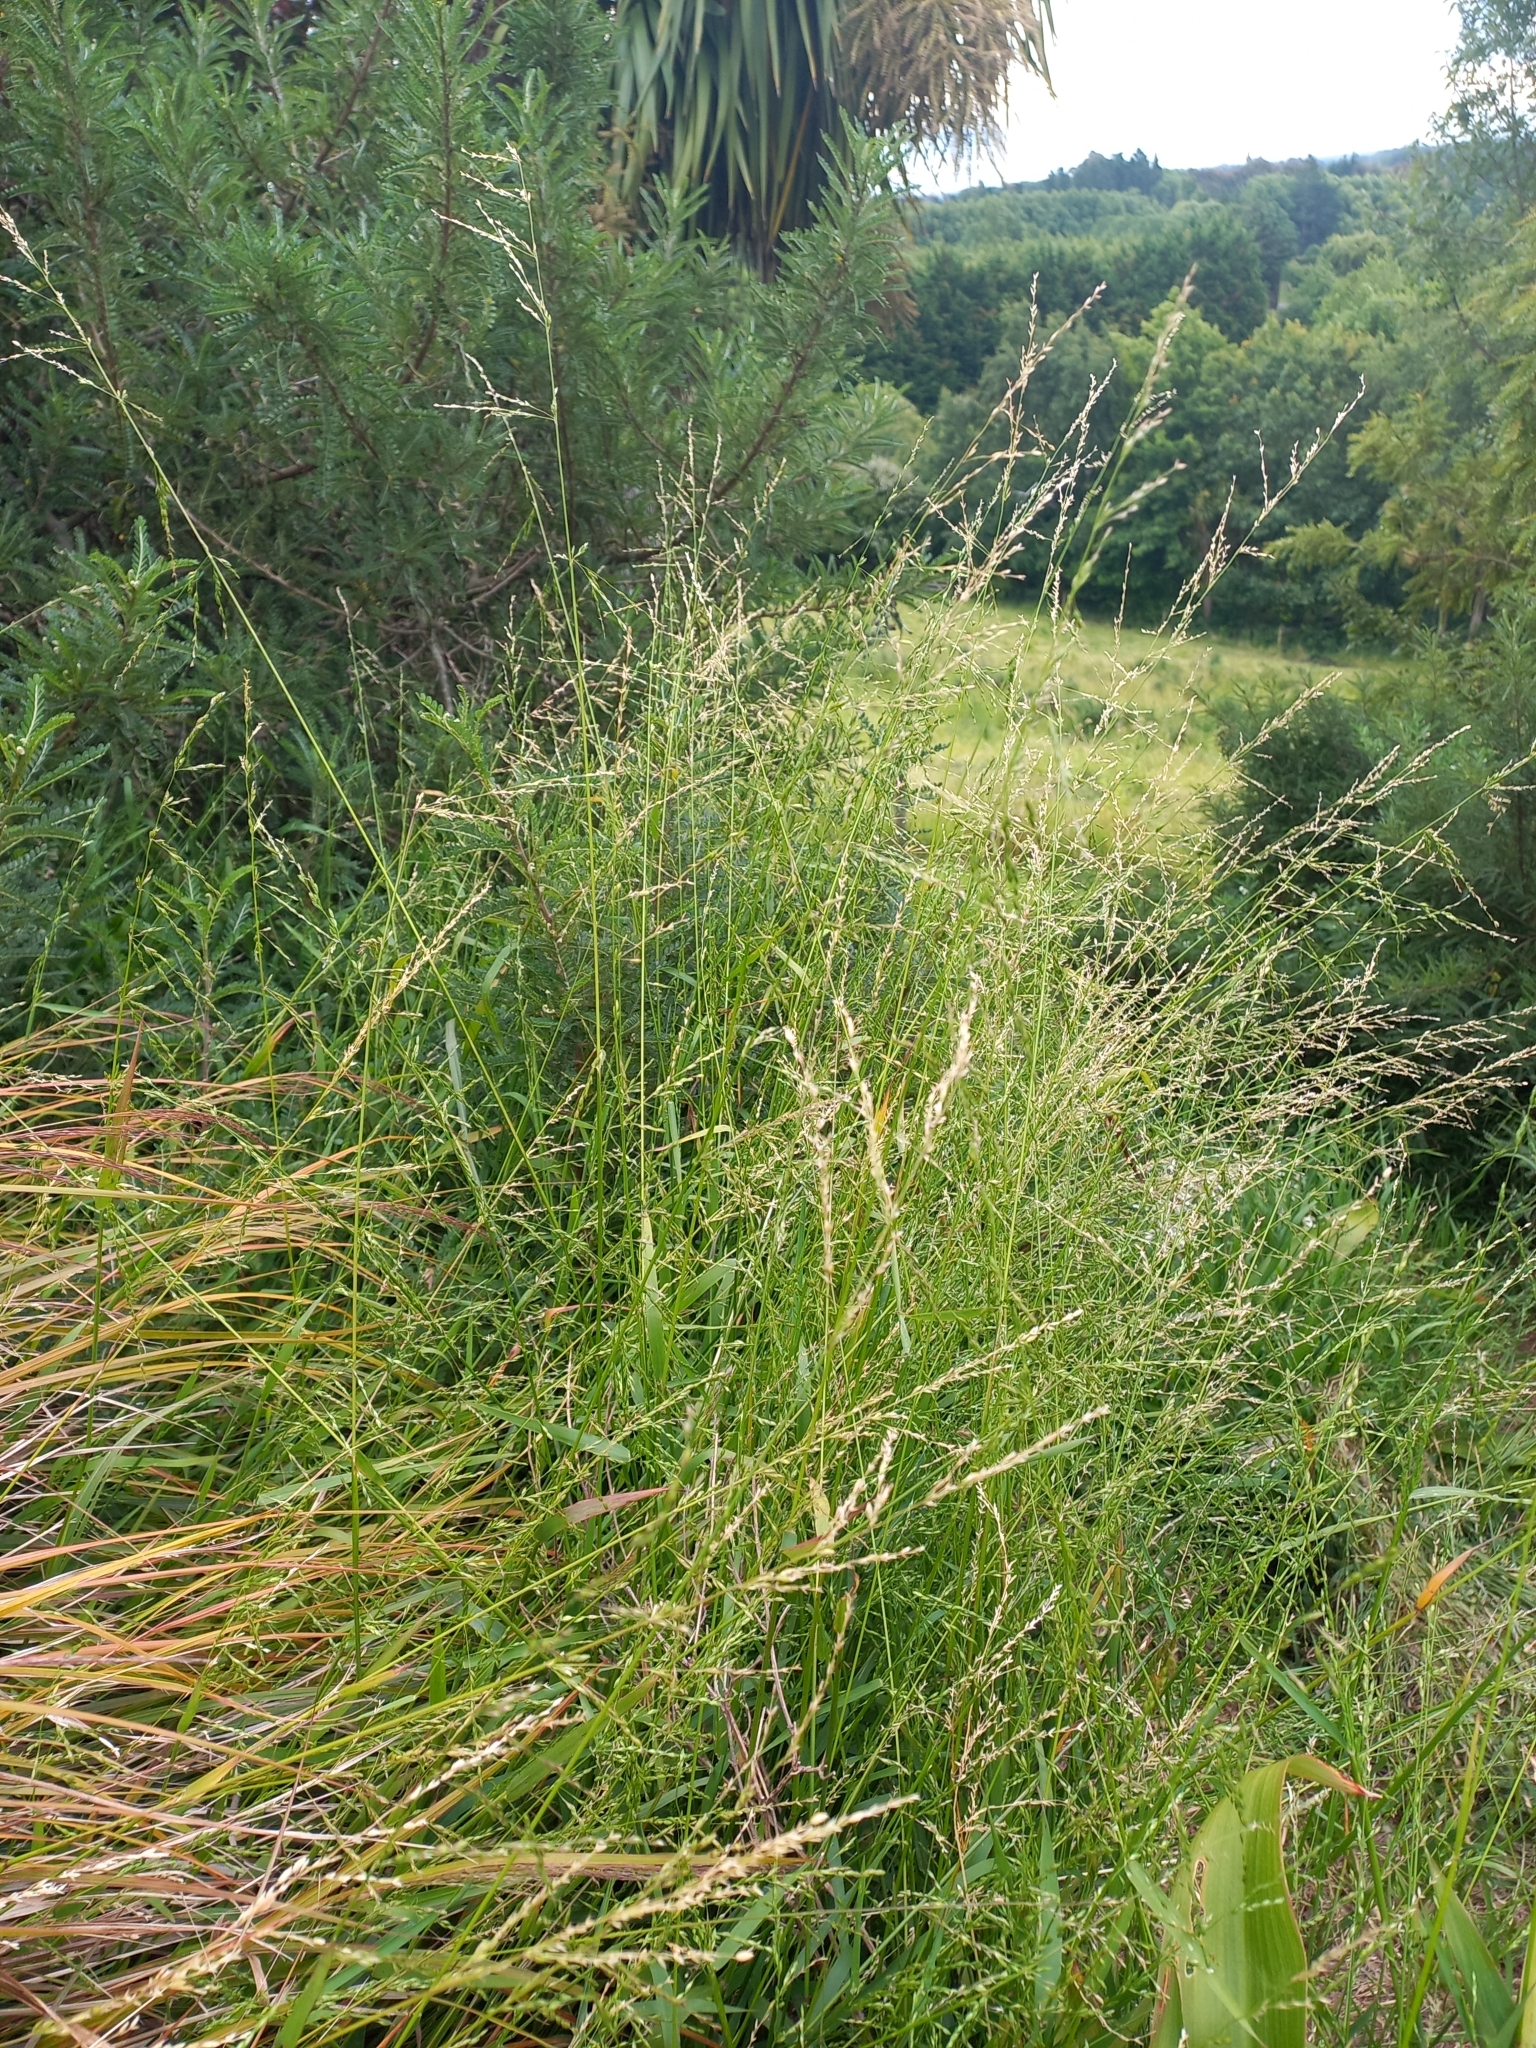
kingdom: Plantae
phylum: Tracheophyta
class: Liliopsida
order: Poales
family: Poaceae
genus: Ehrharta
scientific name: Ehrharta erecta
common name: Panic veldtgrass
